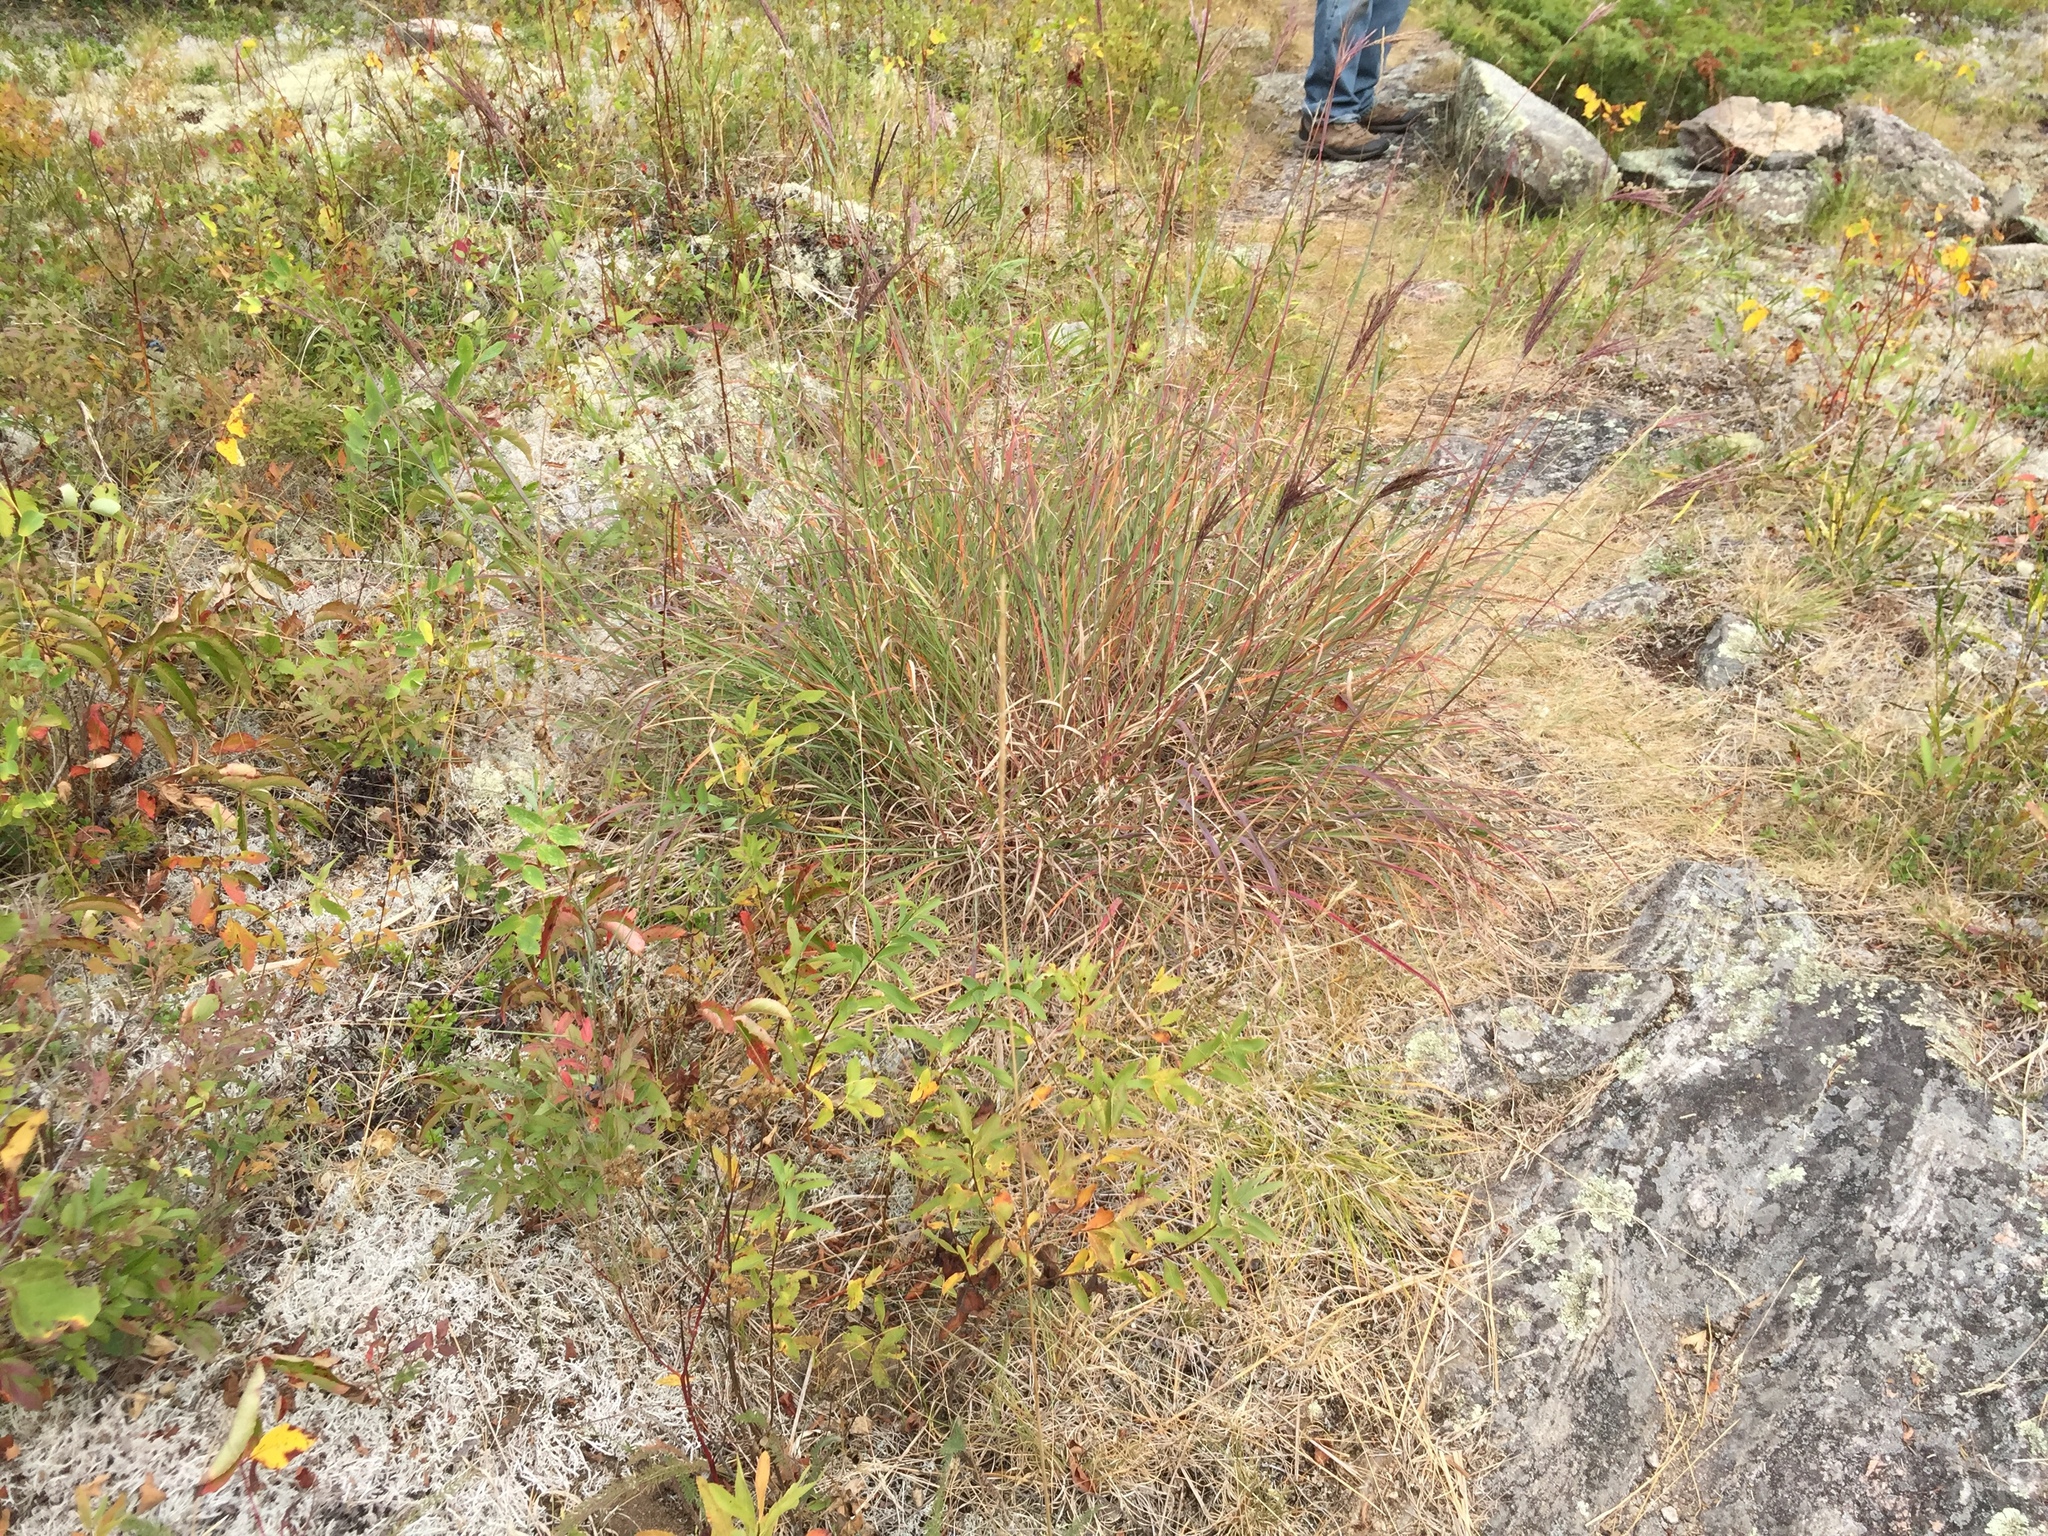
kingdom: Plantae
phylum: Tracheophyta
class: Liliopsida
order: Poales
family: Poaceae
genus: Andropogon
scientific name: Andropogon gerardi
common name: Big bluestem
